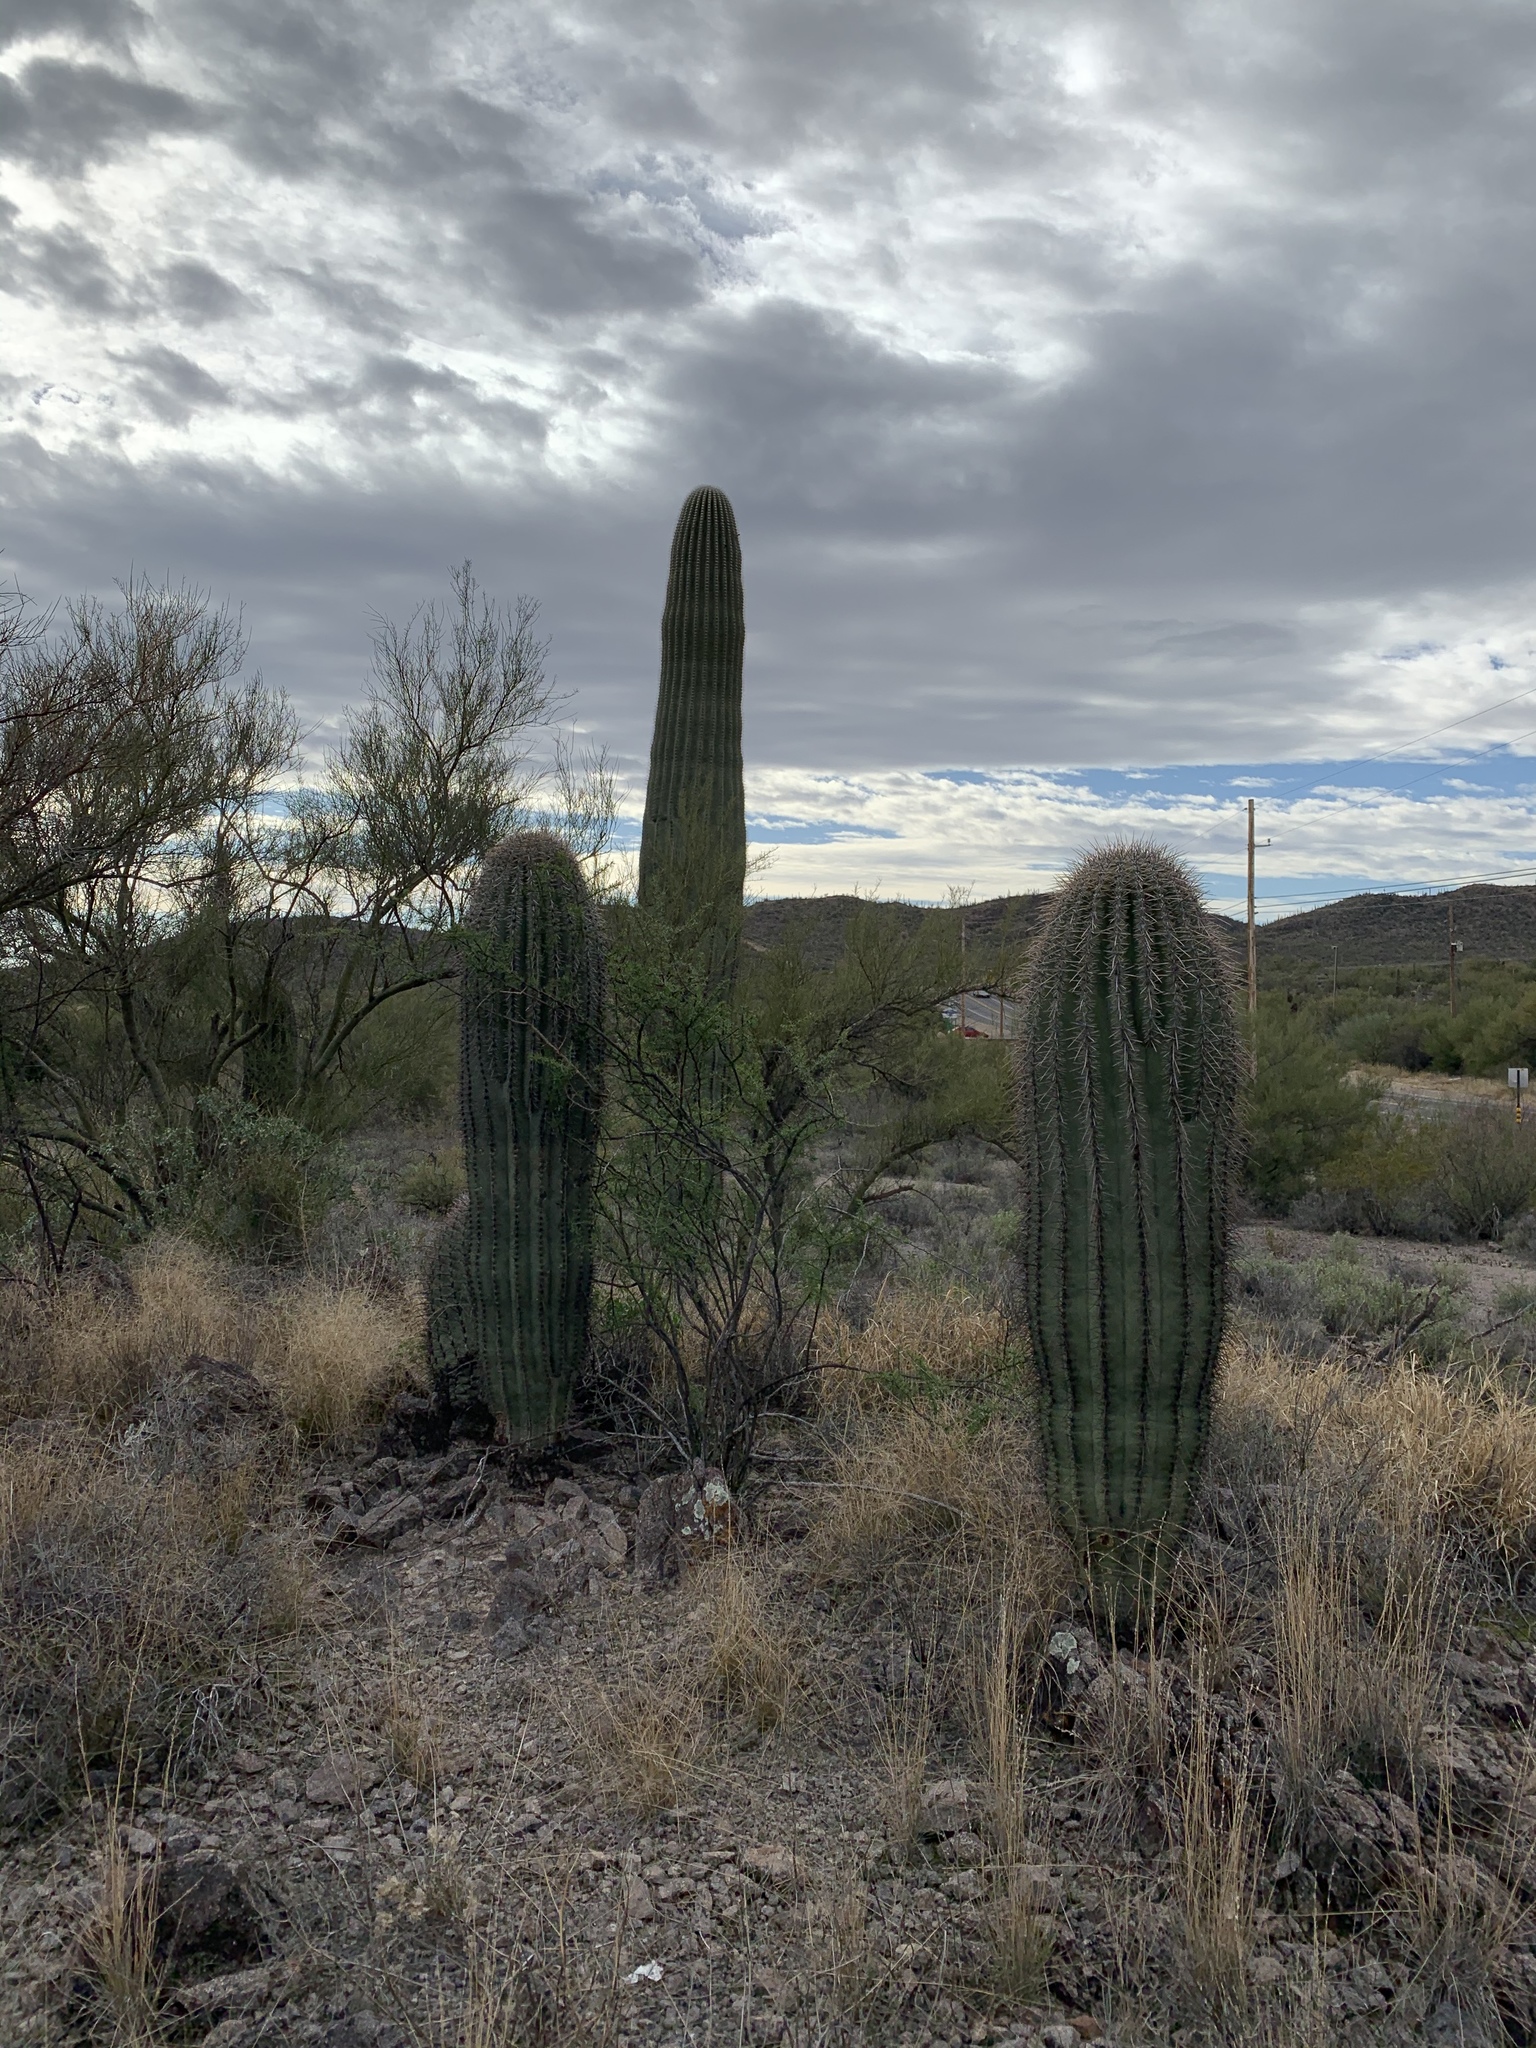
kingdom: Plantae
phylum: Tracheophyta
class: Magnoliopsida
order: Caryophyllales
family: Cactaceae
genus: Carnegiea
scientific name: Carnegiea gigantea
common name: Saguaro
